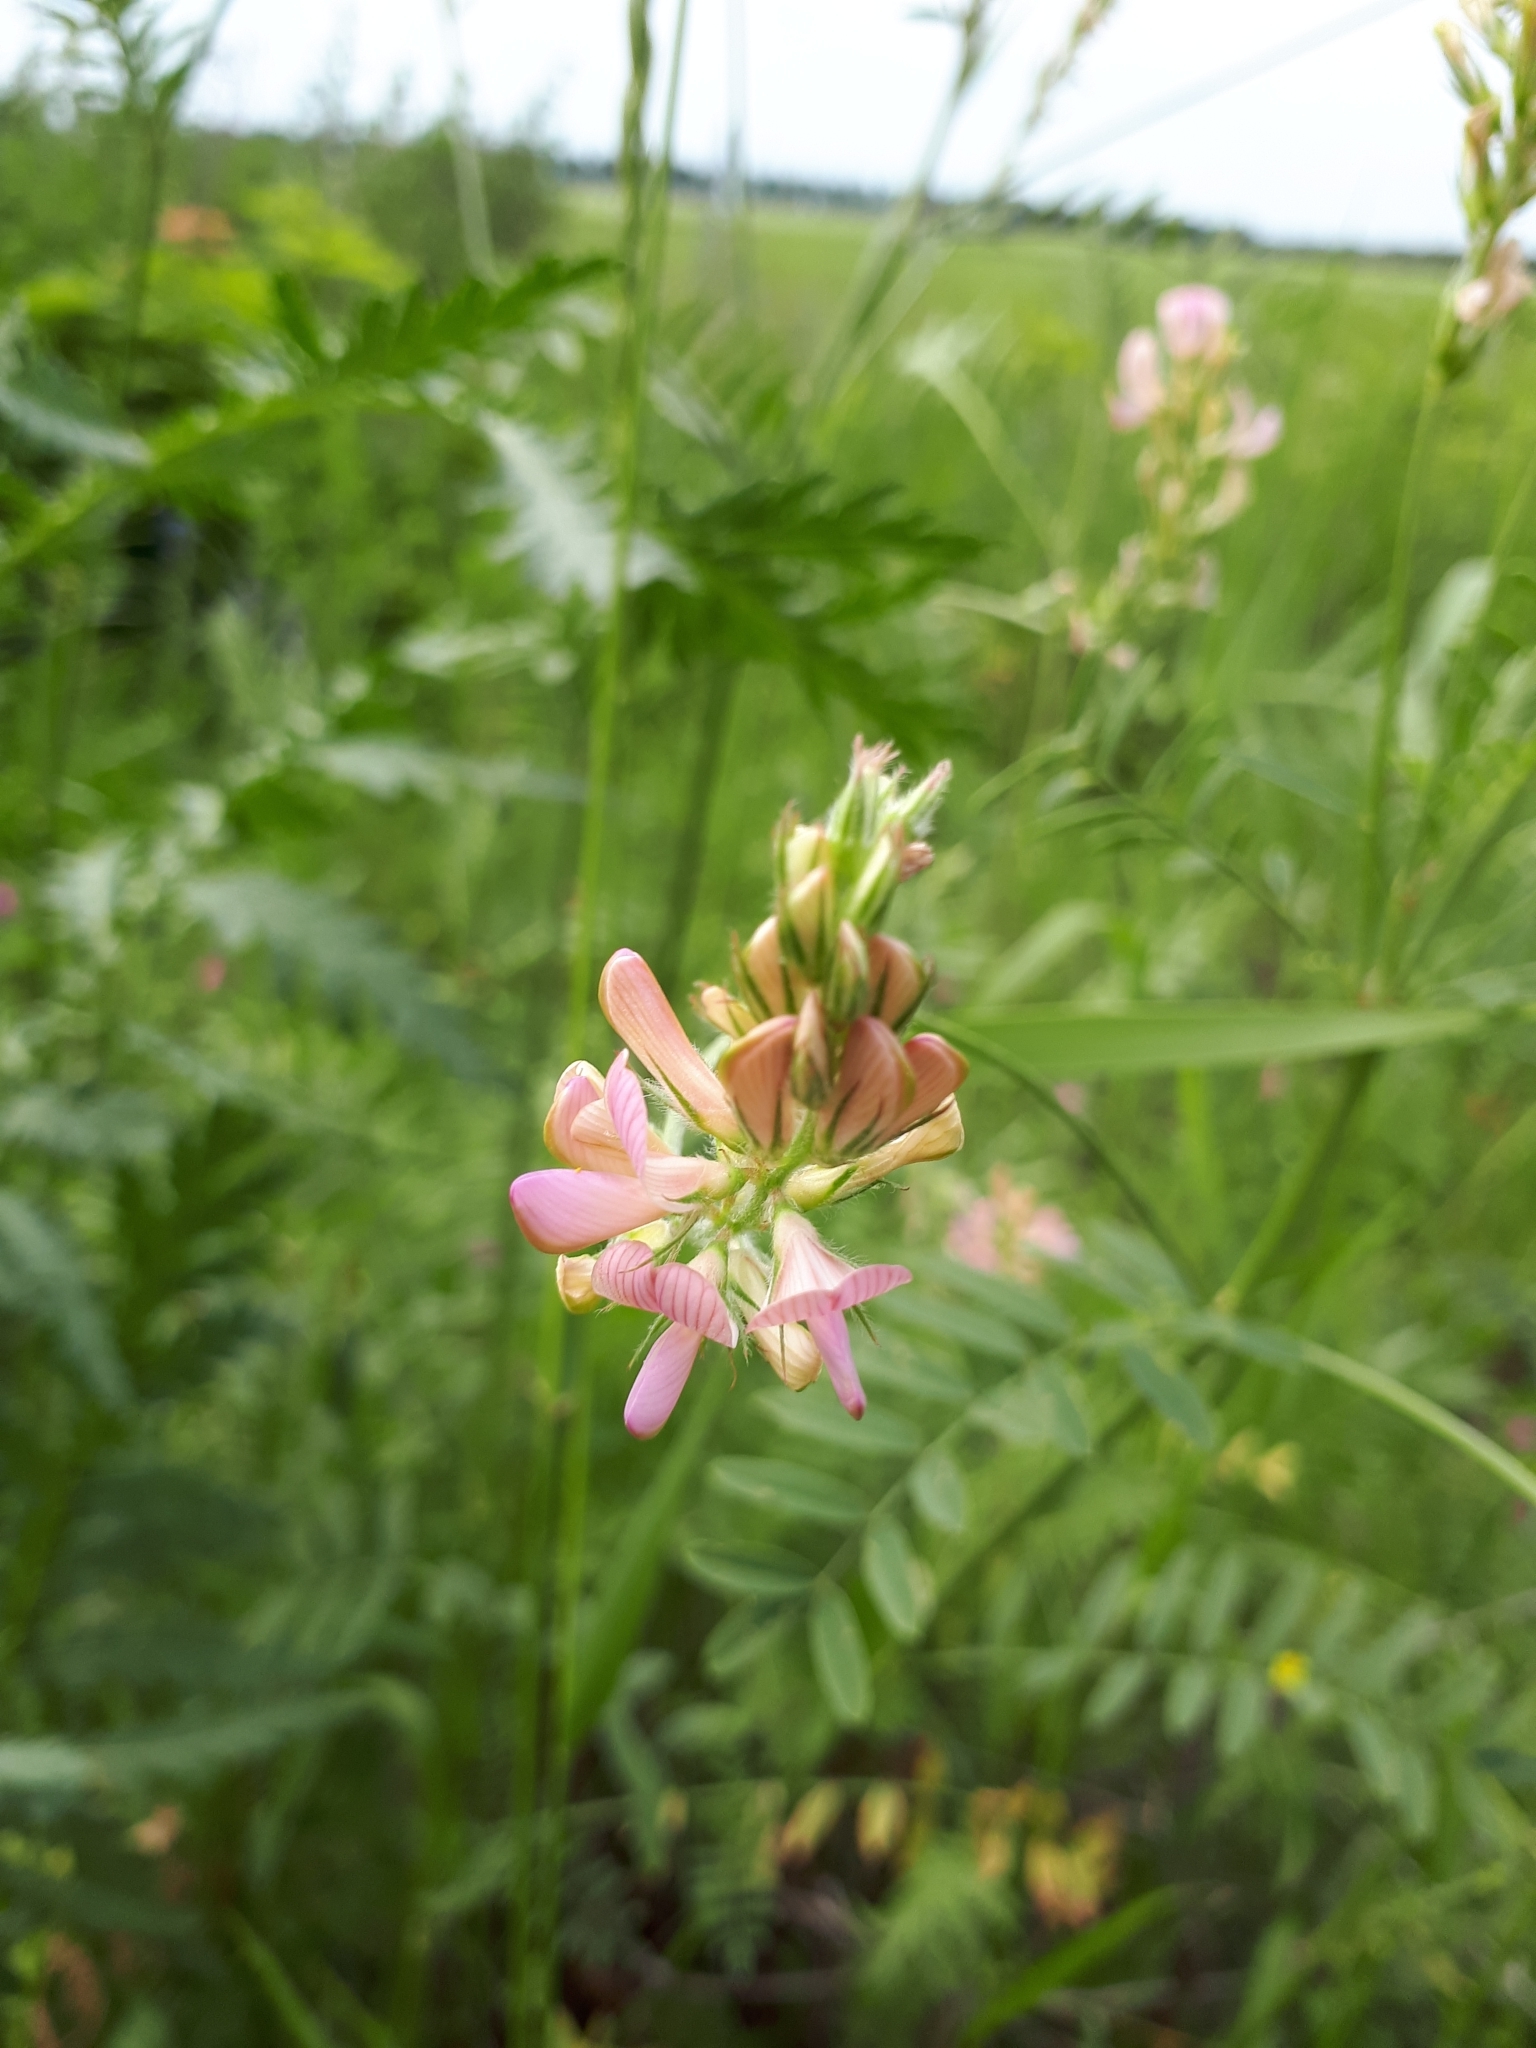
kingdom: Plantae
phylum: Tracheophyta
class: Magnoliopsida
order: Fabales
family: Fabaceae
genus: Onobrychis
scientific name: Onobrychis viciifolia
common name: Sainfoin
